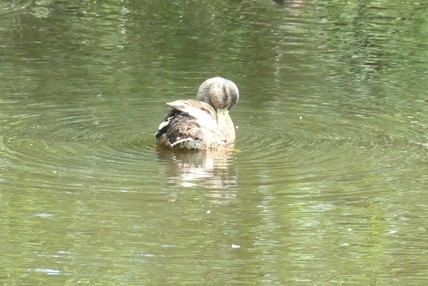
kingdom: Animalia
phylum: Chordata
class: Aves
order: Anseriformes
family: Anatidae
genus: Anas
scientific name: Anas platyrhynchos
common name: Mallard
